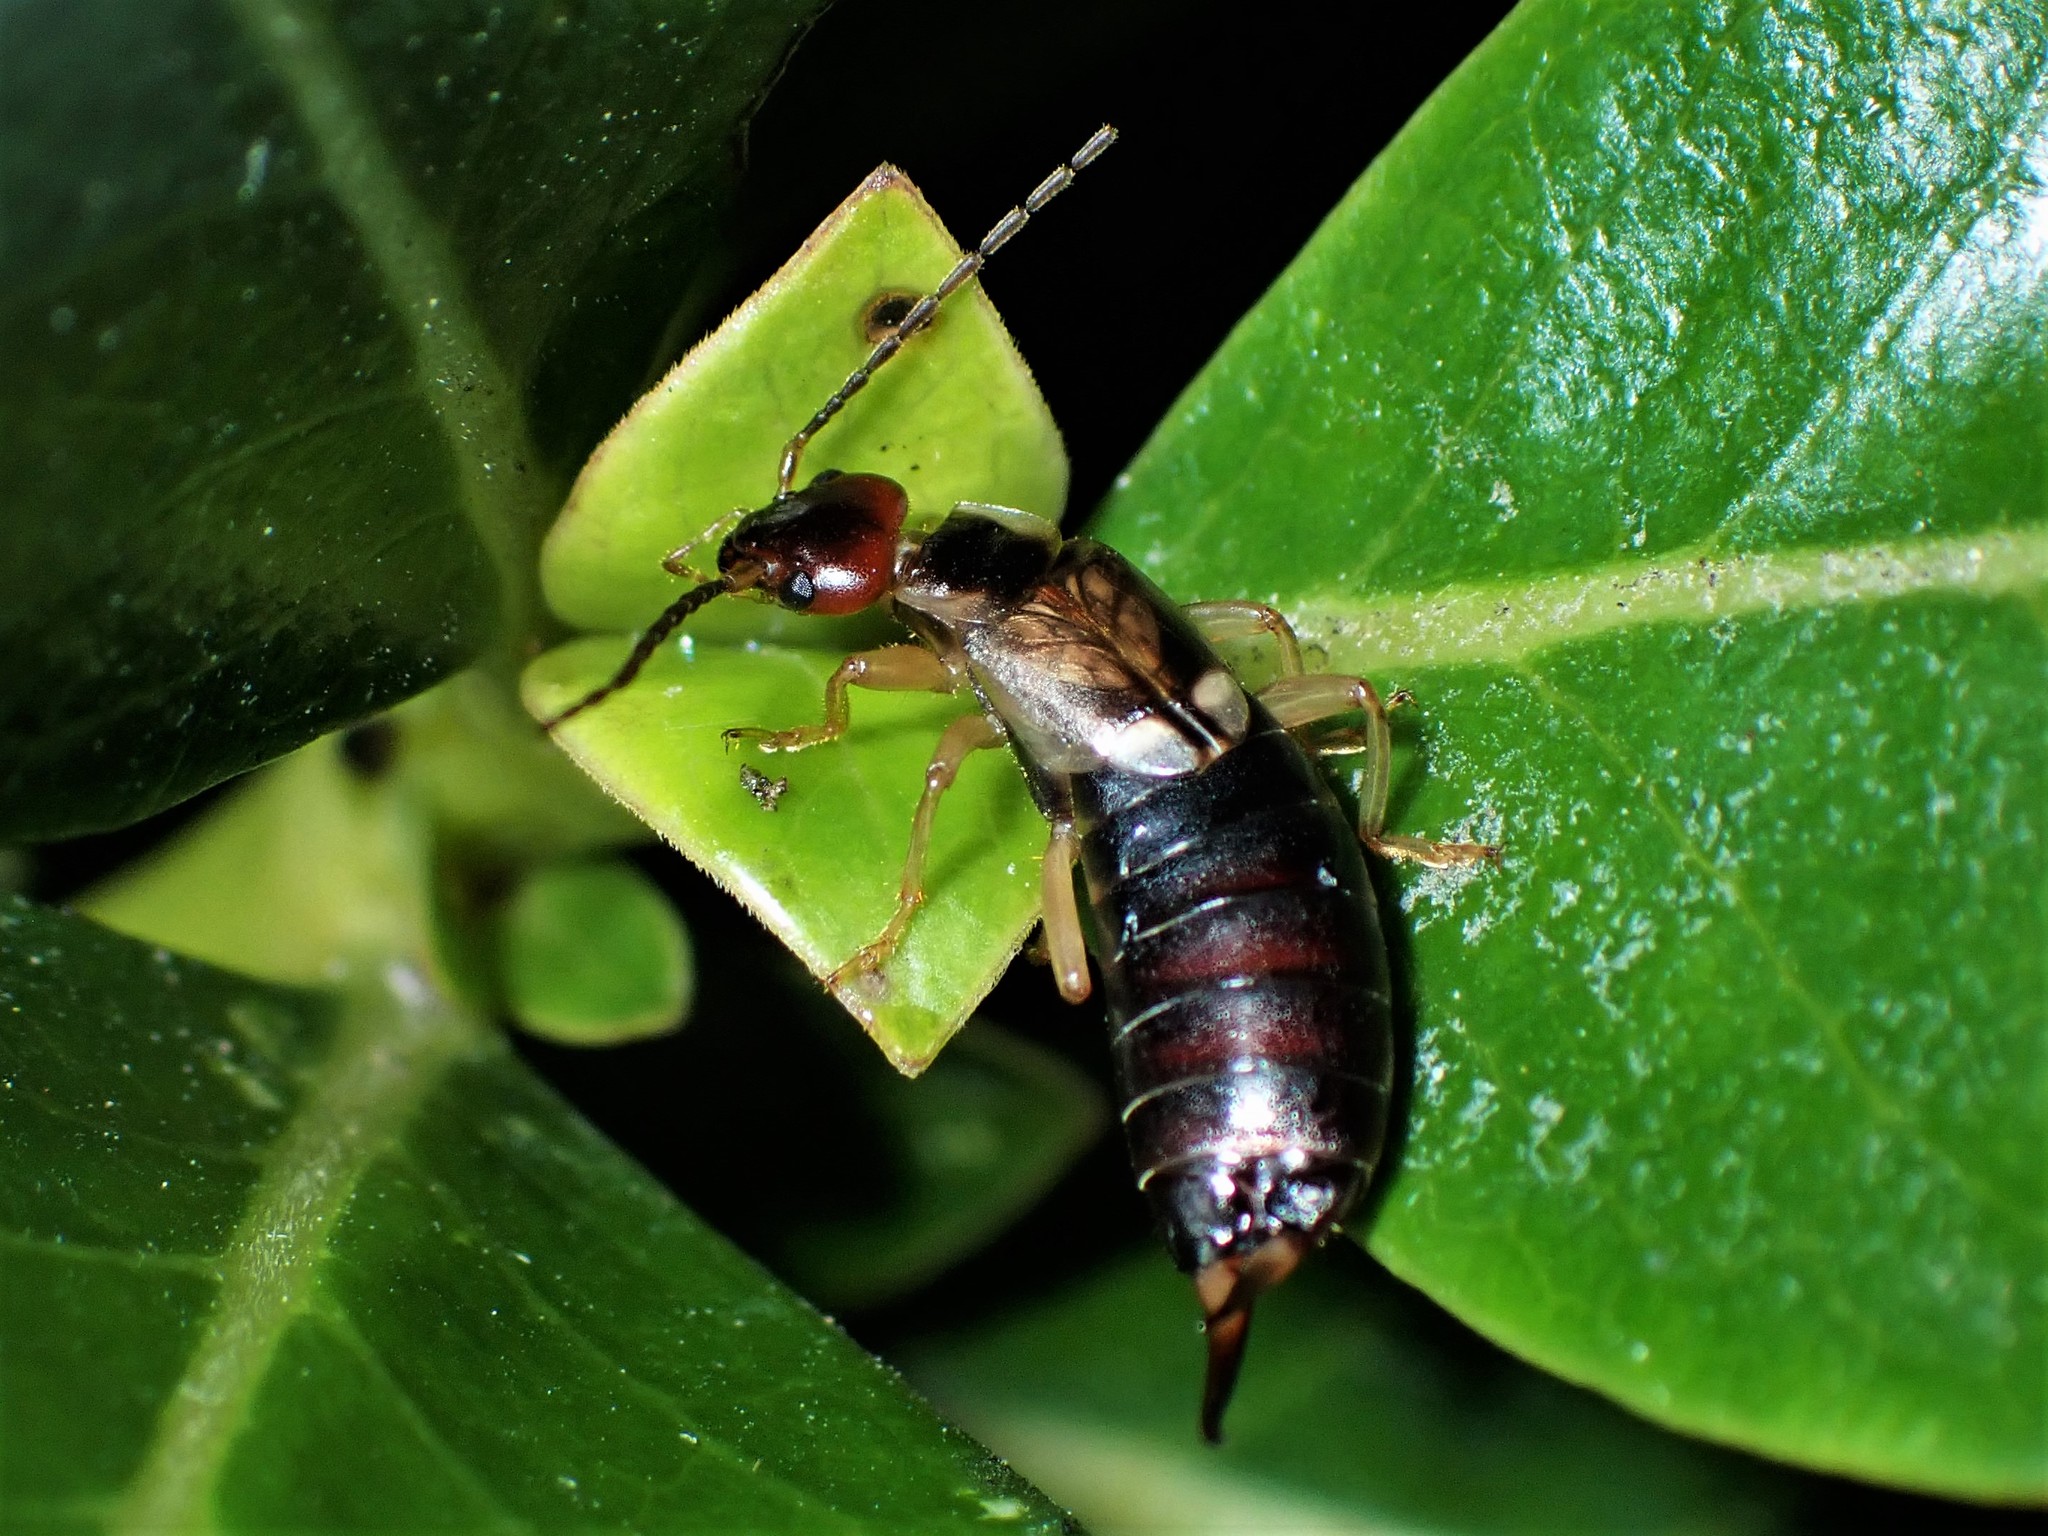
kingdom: Animalia
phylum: Arthropoda
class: Insecta
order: Dermaptera
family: Forficulidae
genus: Forficula
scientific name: Forficula
